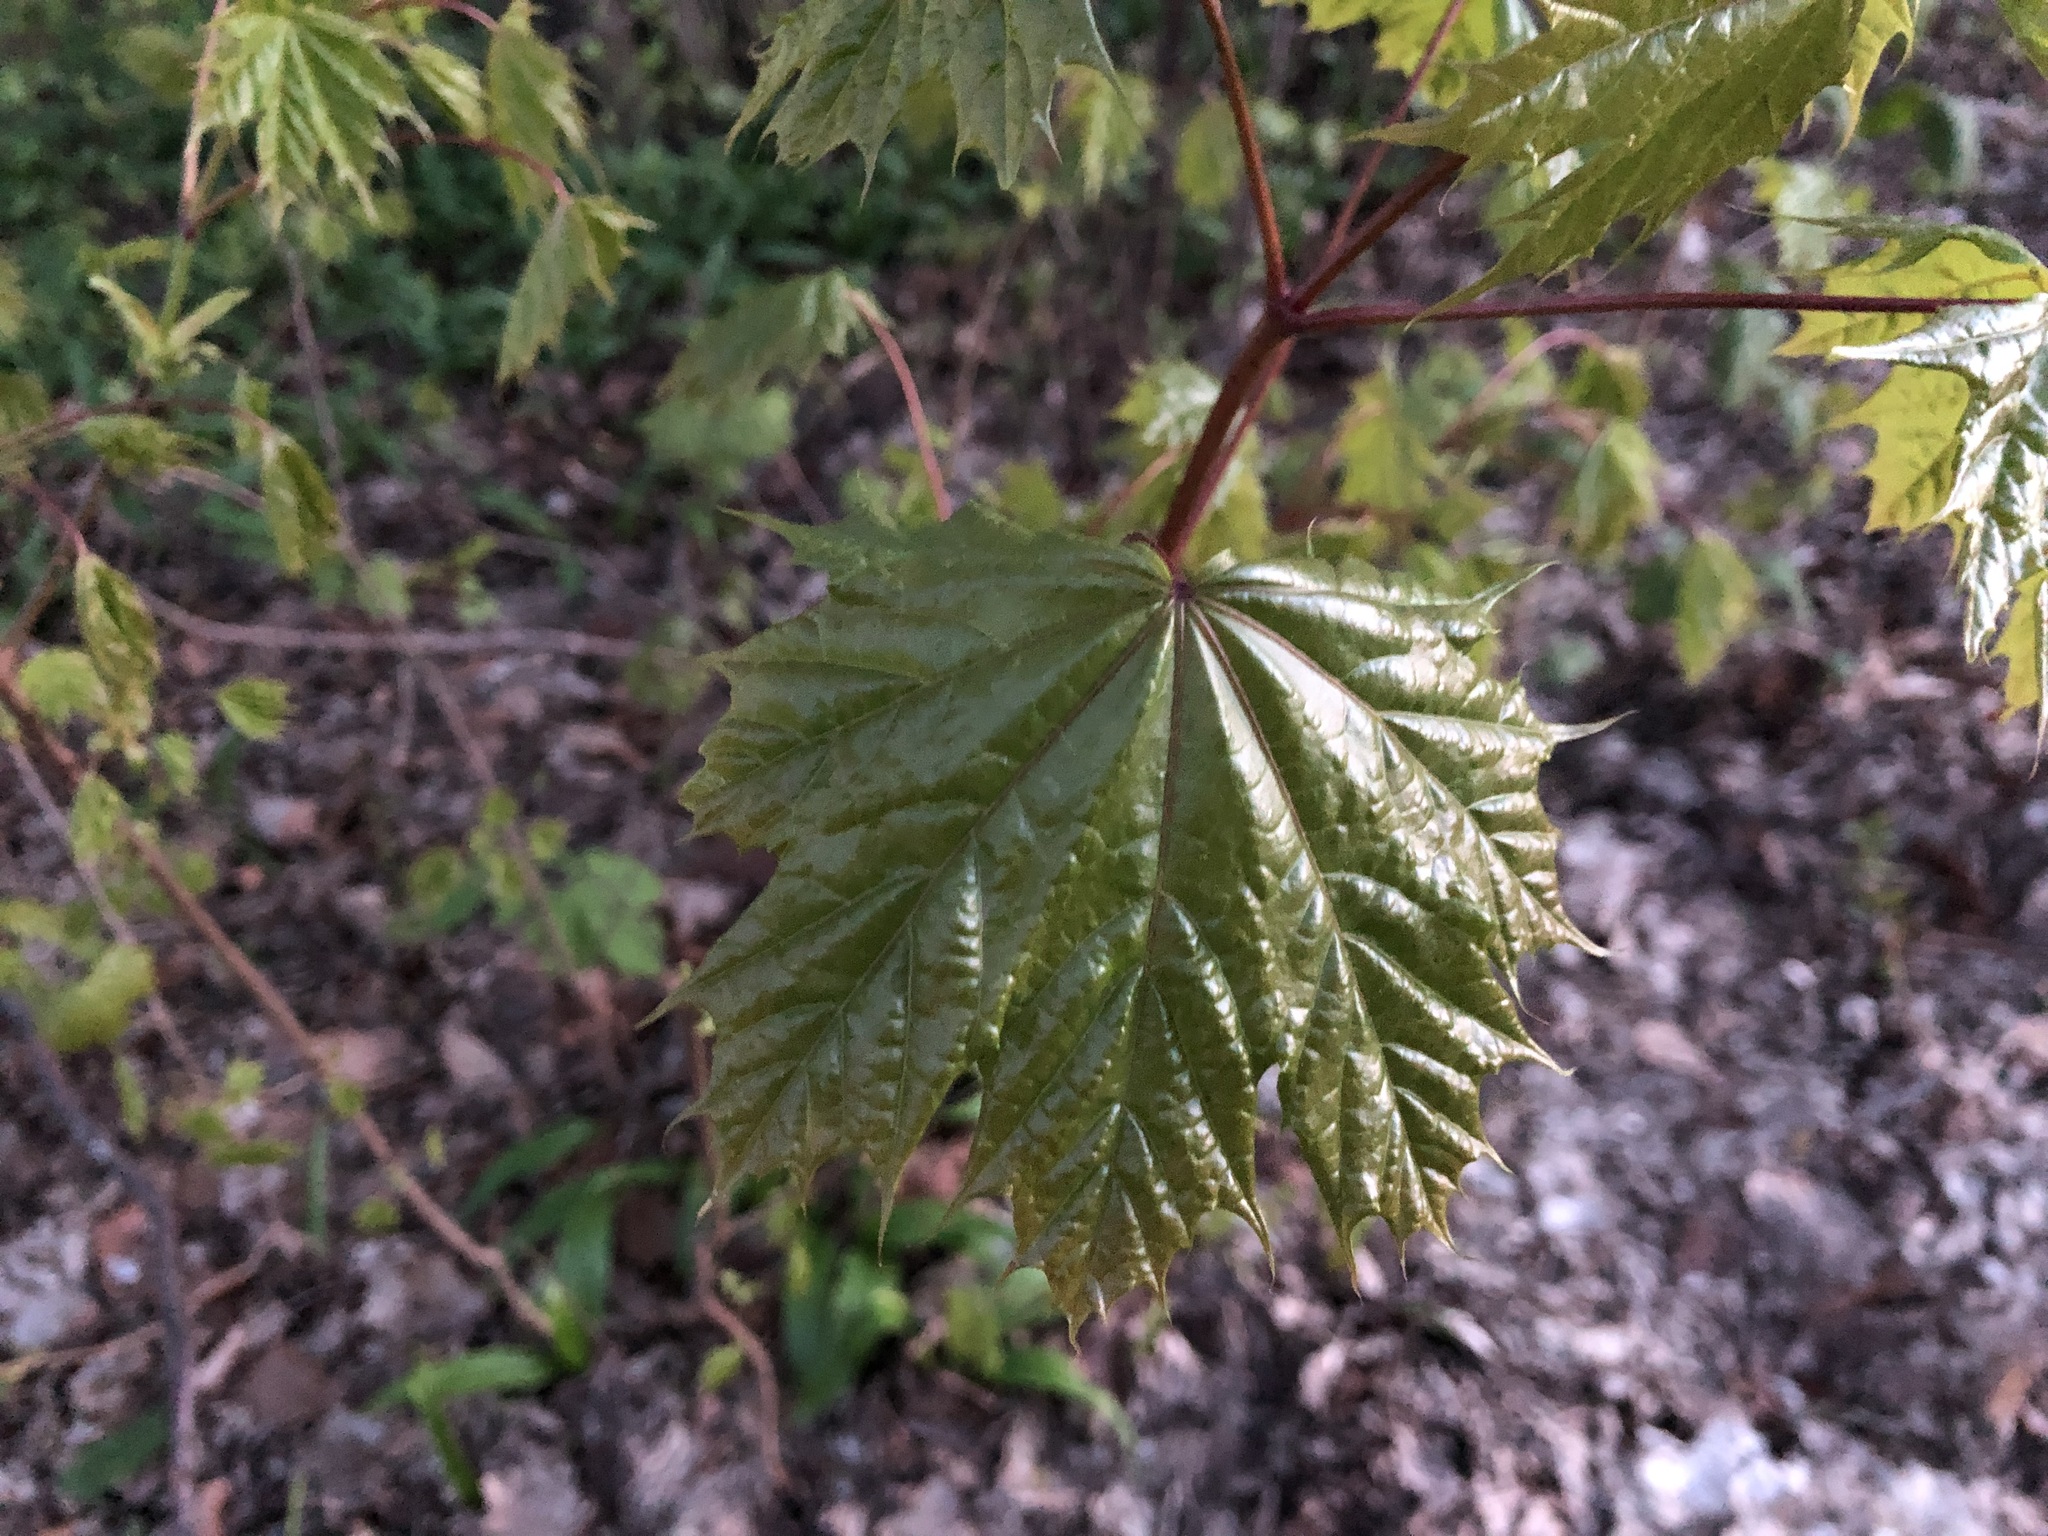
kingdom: Plantae
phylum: Tracheophyta
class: Magnoliopsida
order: Sapindales
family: Sapindaceae
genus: Acer
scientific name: Acer platanoides
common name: Norway maple
